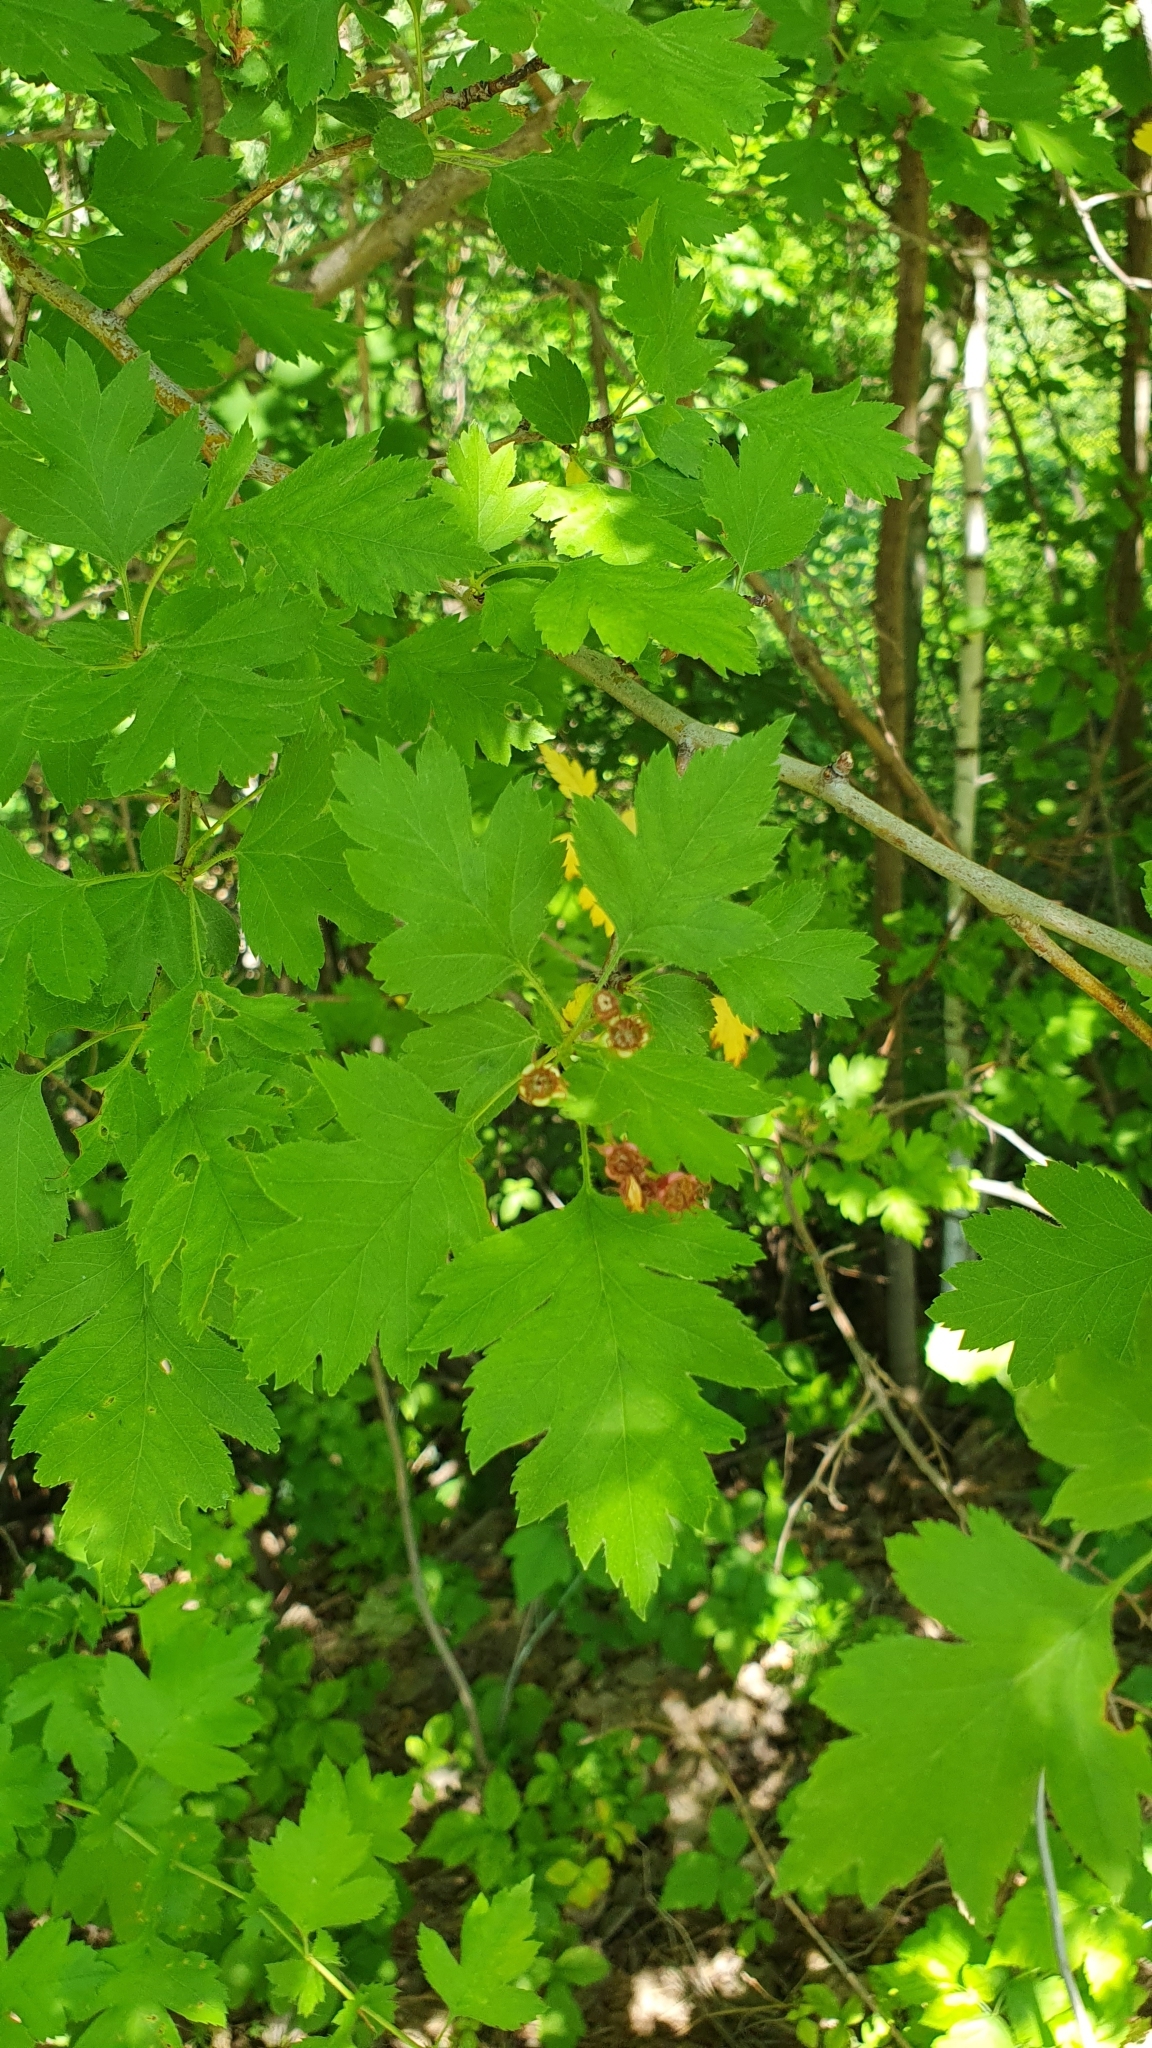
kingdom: Plantae
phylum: Tracheophyta
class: Magnoliopsida
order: Rosales
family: Rosaceae
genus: Crataegus
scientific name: Crataegus monogyna
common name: Hawthorn
